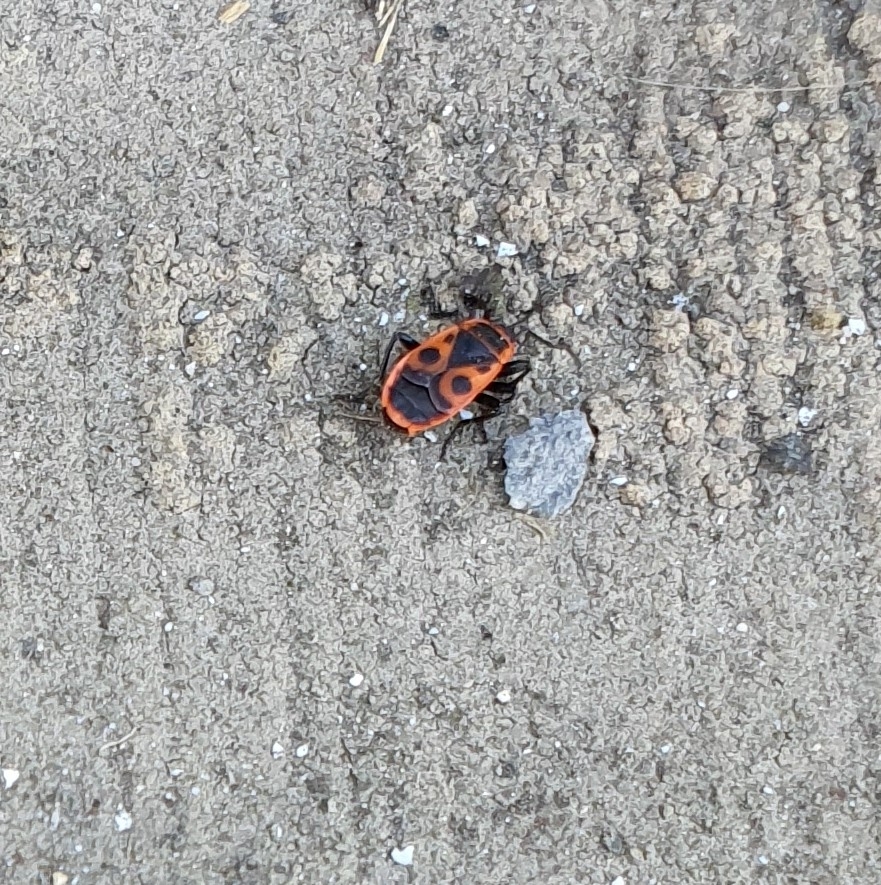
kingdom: Animalia
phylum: Arthropoda
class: Insecta
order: Hemiptera
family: Pyrrhocoridae
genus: Pyrrhocoris
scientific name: Pyrrhocoris apterus
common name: Firebug
